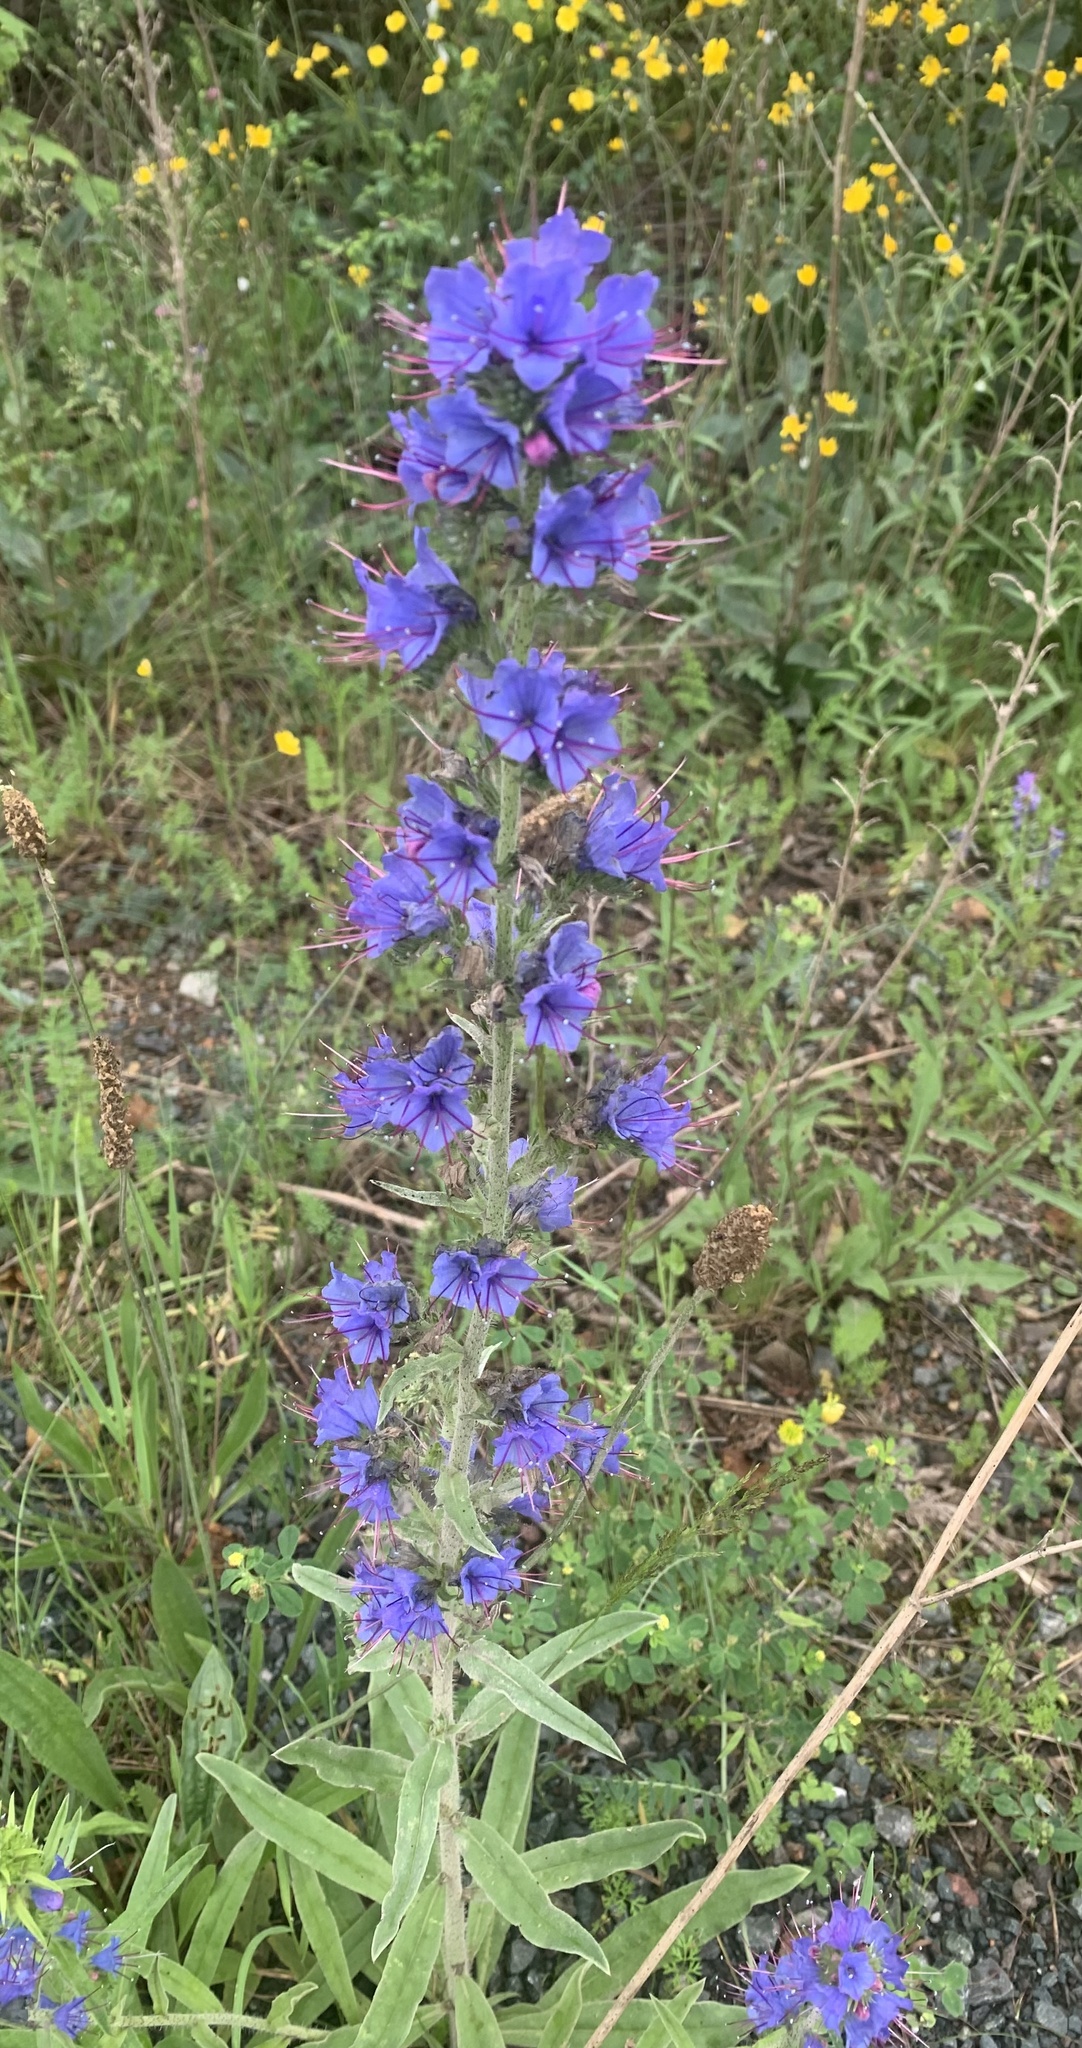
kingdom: Plantae
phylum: Tracheophyta
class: Magnoliopsida
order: Boraginales
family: Boraginaceae
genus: Echium
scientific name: Echium vulgare
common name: Common viper's bugloss
